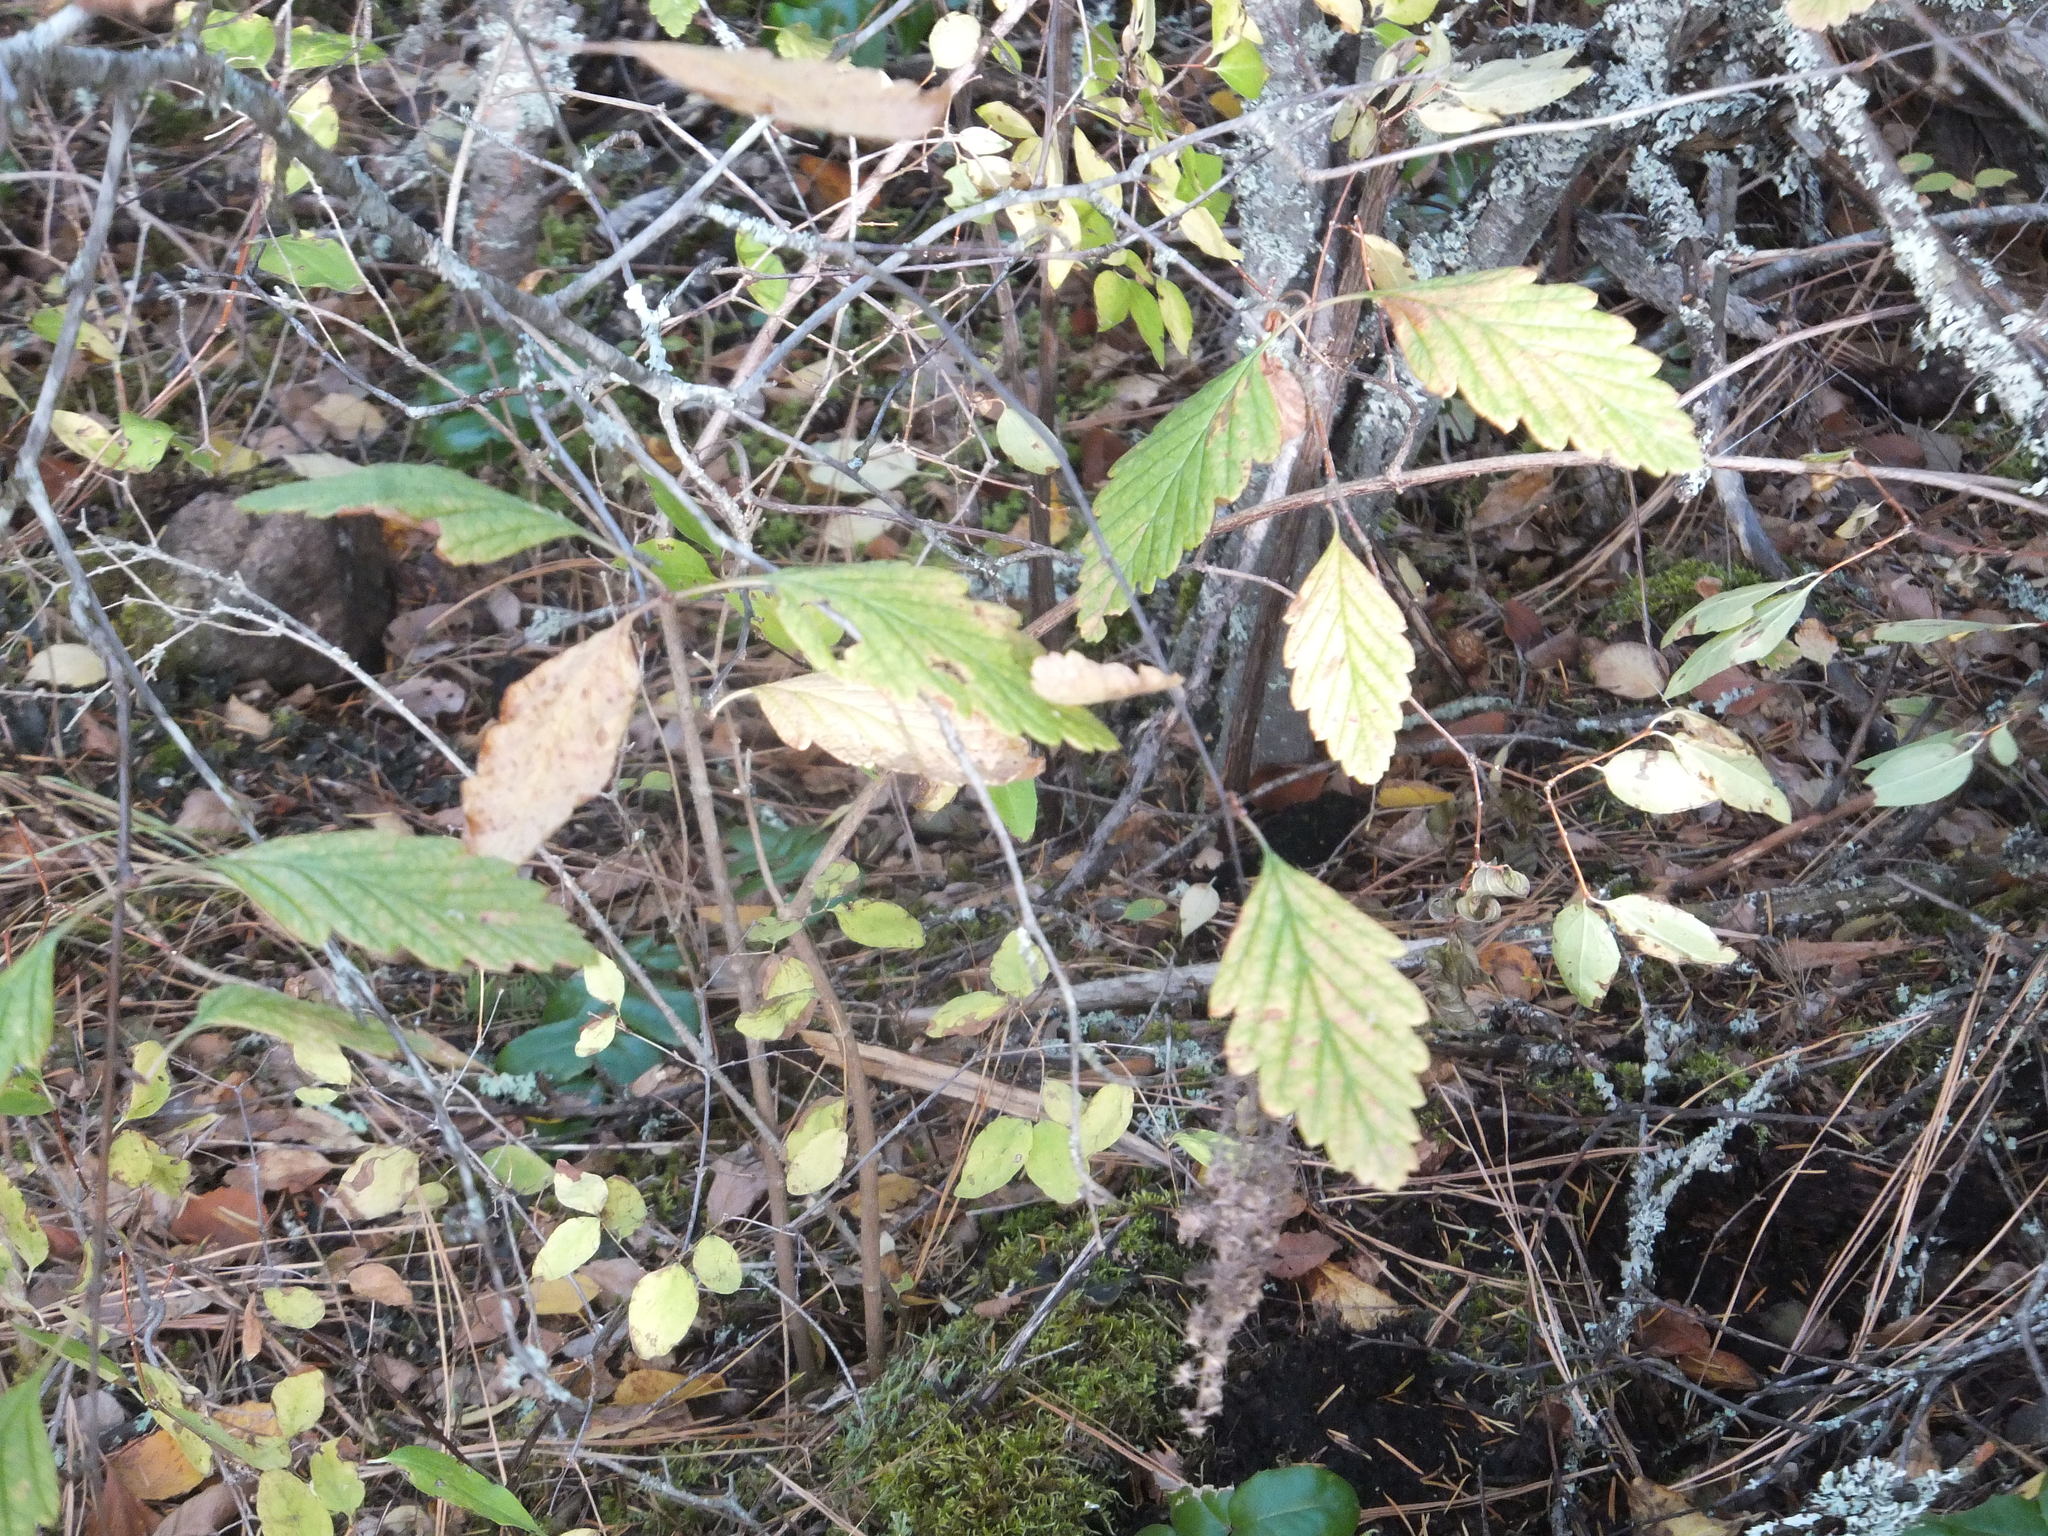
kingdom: Plantae
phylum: Tracheophyta
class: Magnoliopsida
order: Rosales
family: Rosaceae
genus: Holodiscus
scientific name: Holodiscus discolor
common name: Oceanspray
